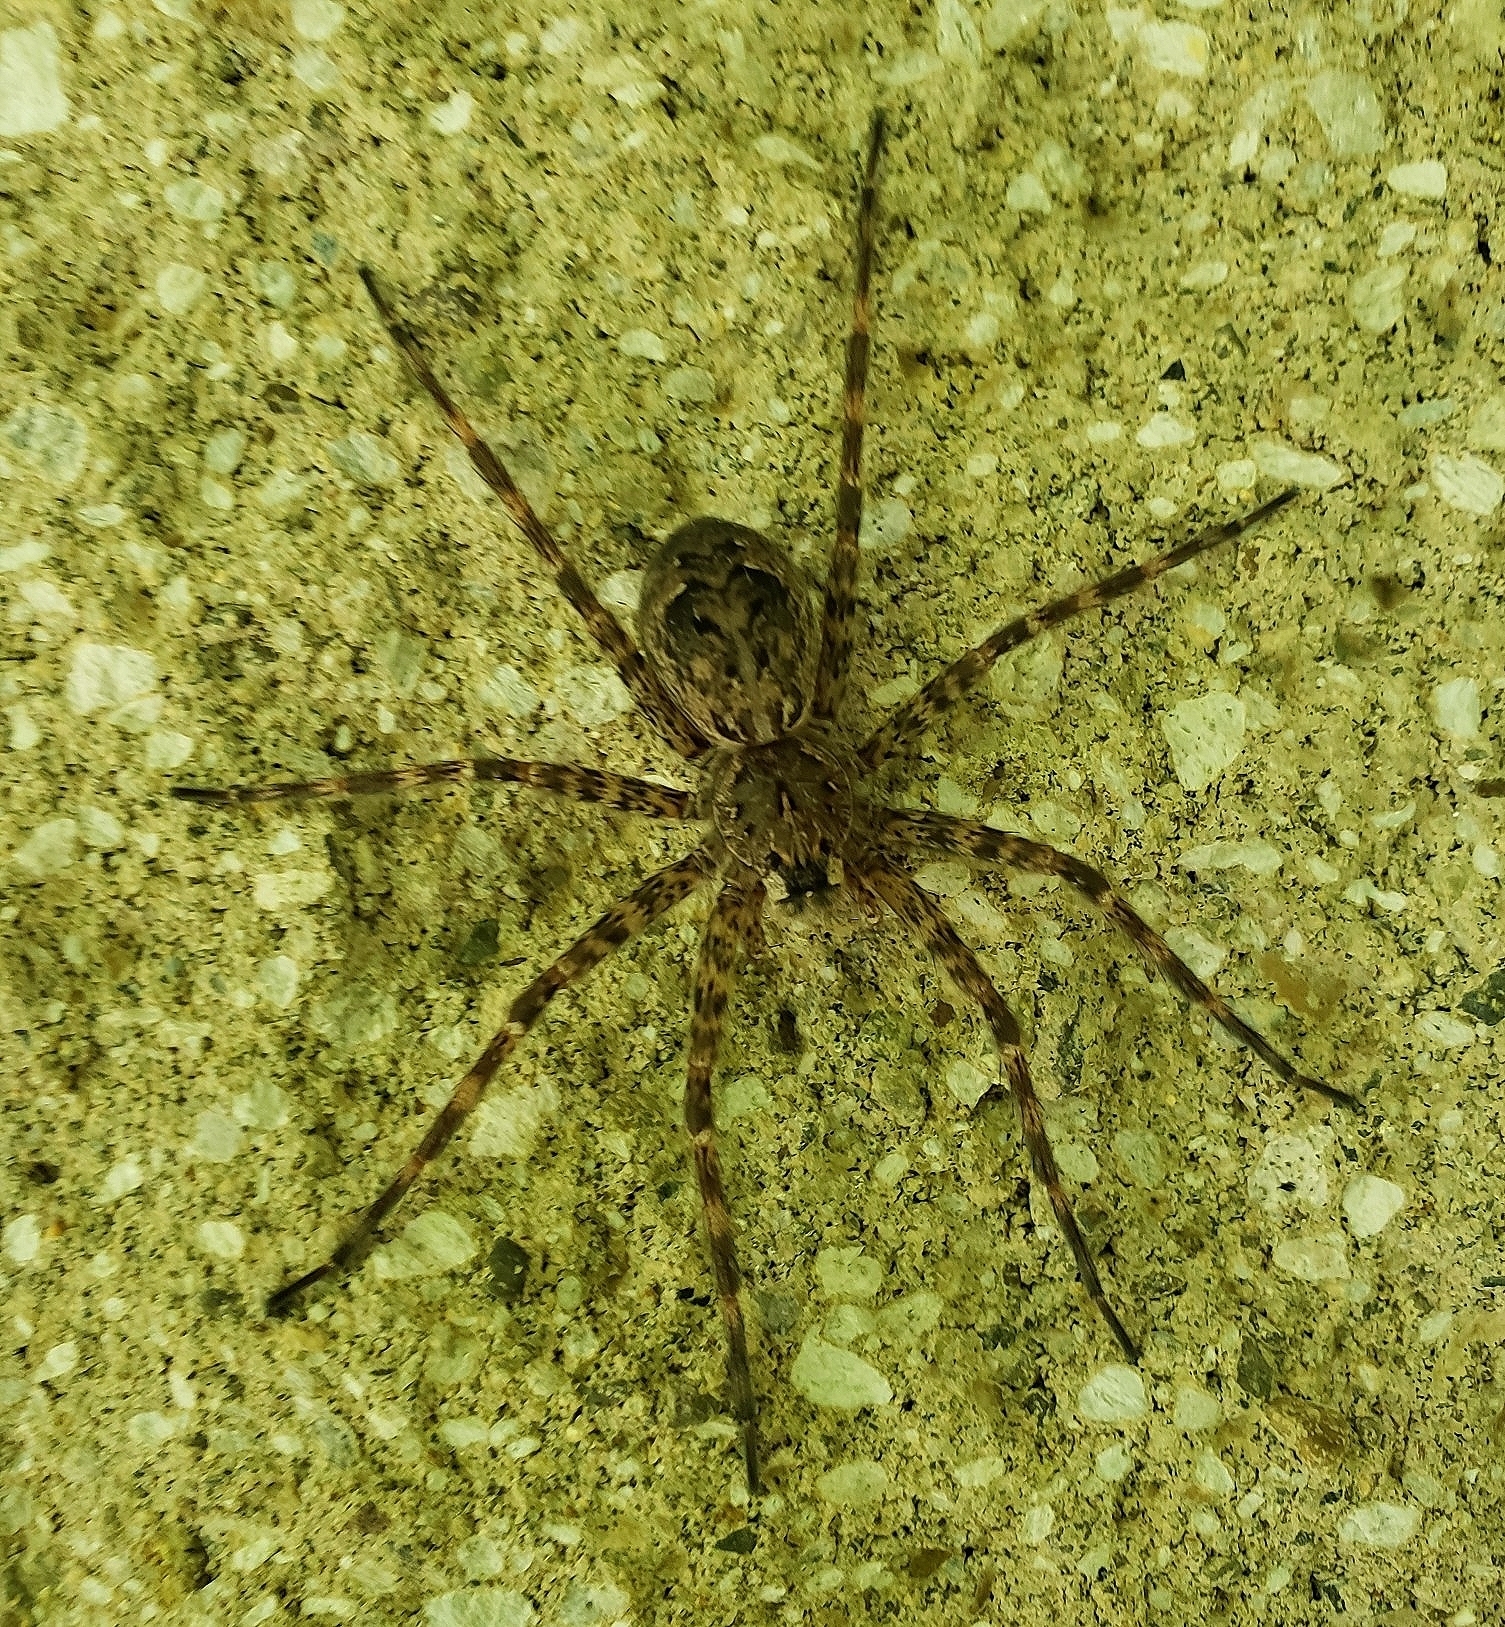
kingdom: Animalia
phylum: Arthropoda
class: Arachnida
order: Araneae
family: Pisauridae
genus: Dolomedes
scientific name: Dolomedes tenebrosus
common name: Dark fishing spider
